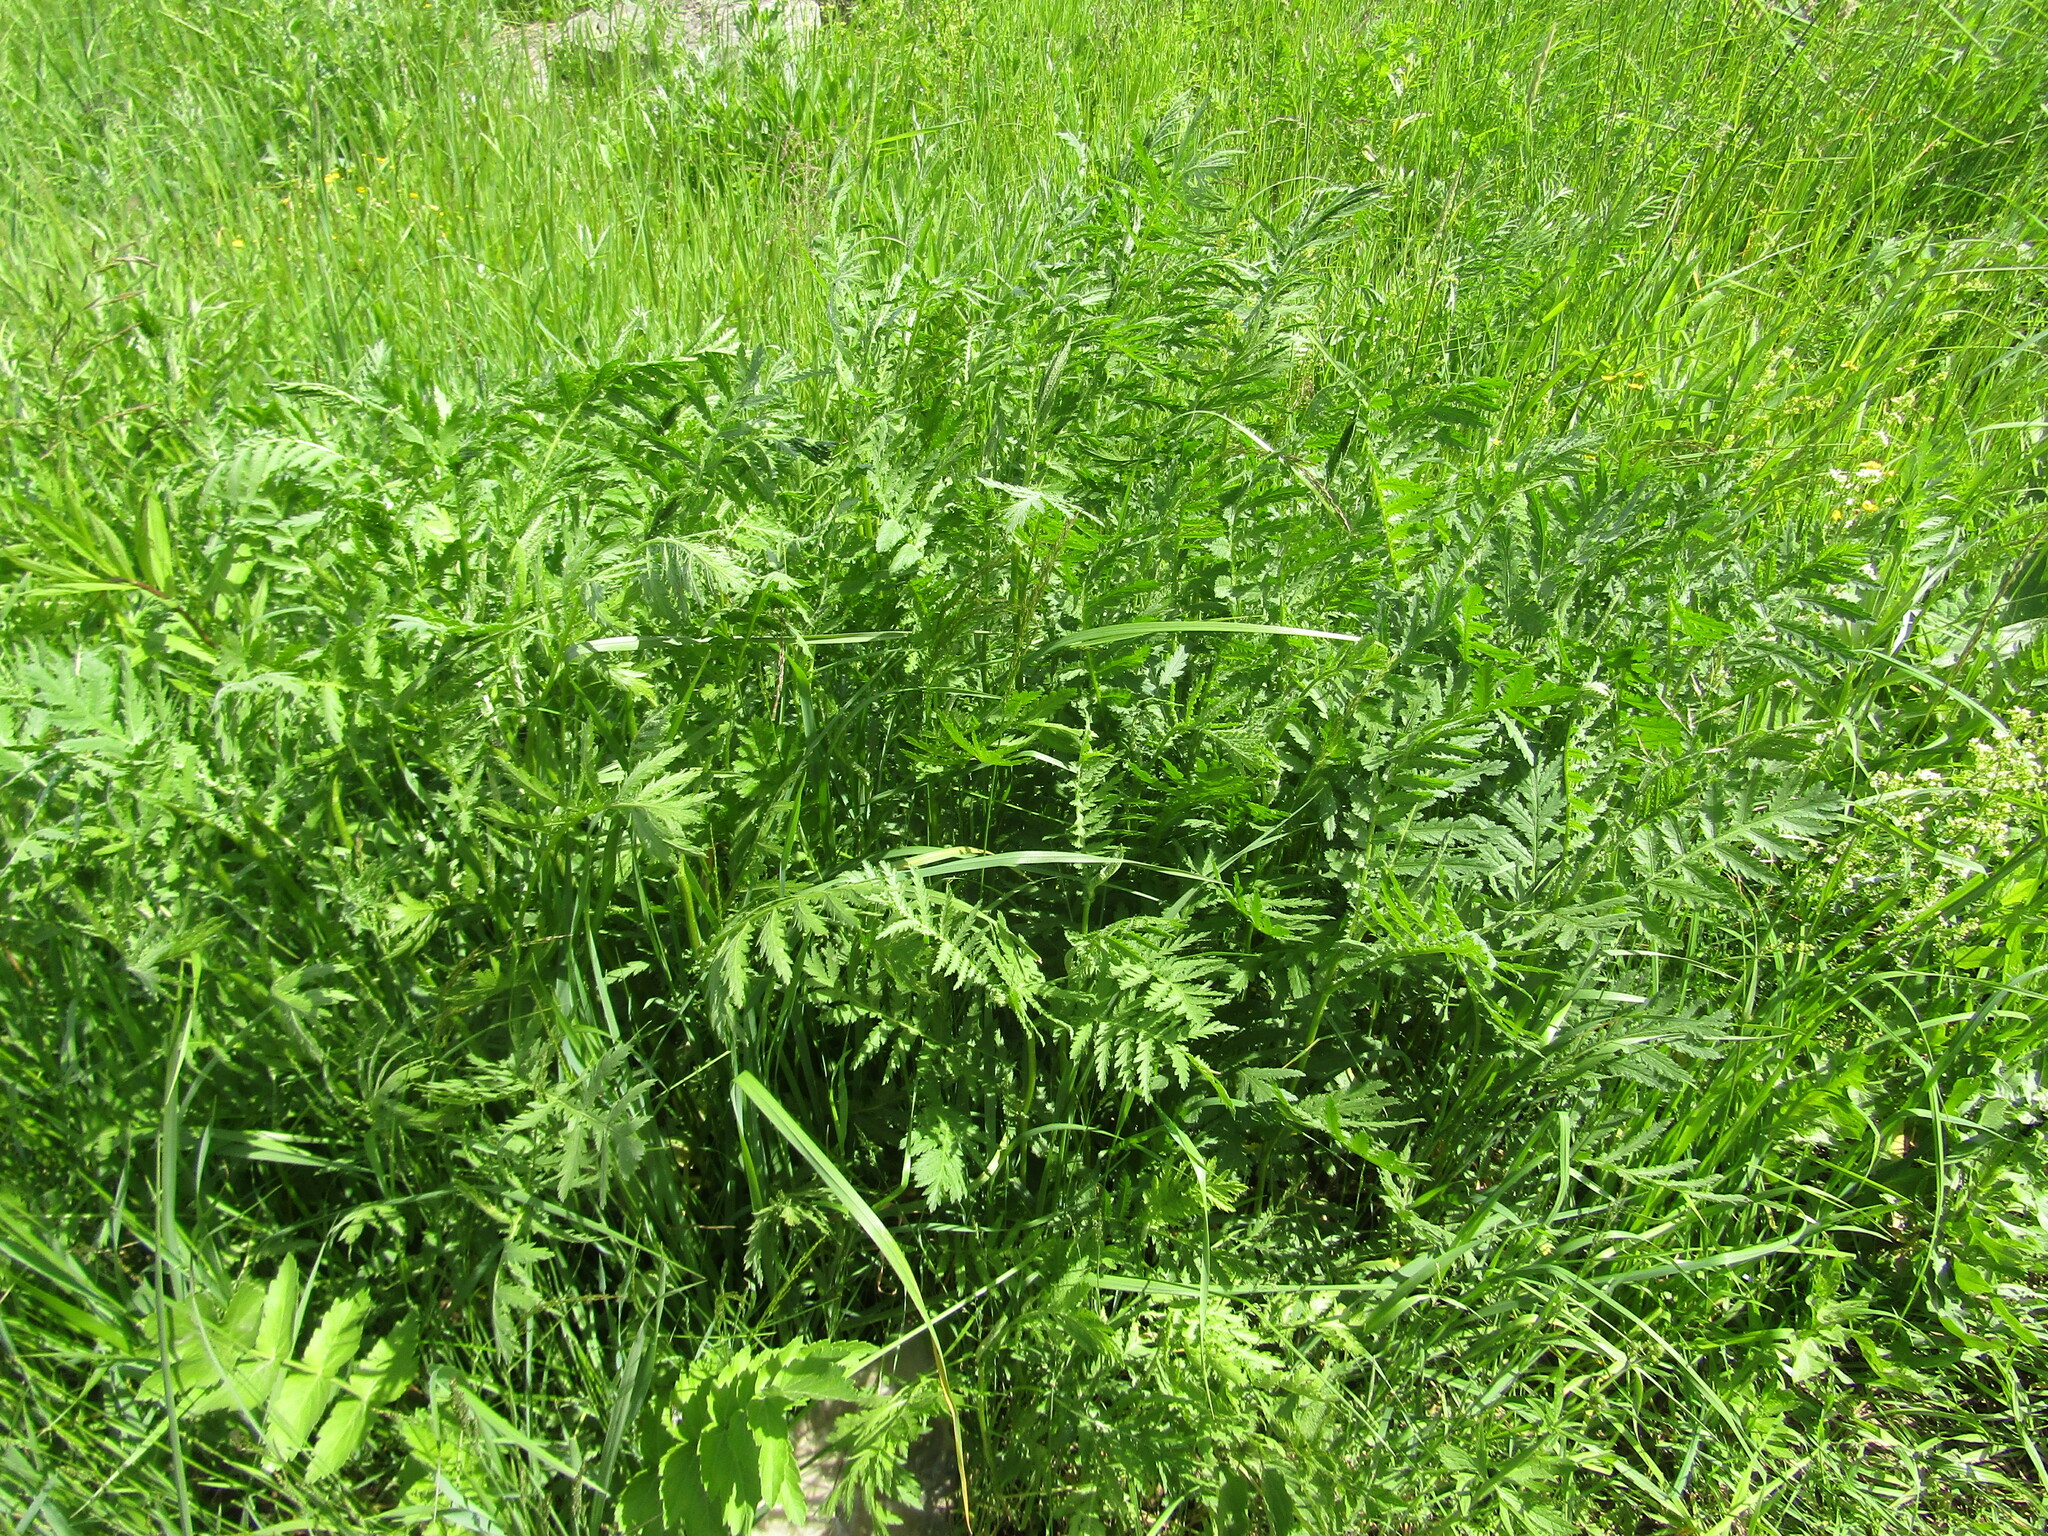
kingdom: Plantae
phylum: Tracheophyta
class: Magnoliopsida
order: Asterales
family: Asteraceae
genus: Tanacetum
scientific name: Tanacetum vulgare
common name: Common tansy
